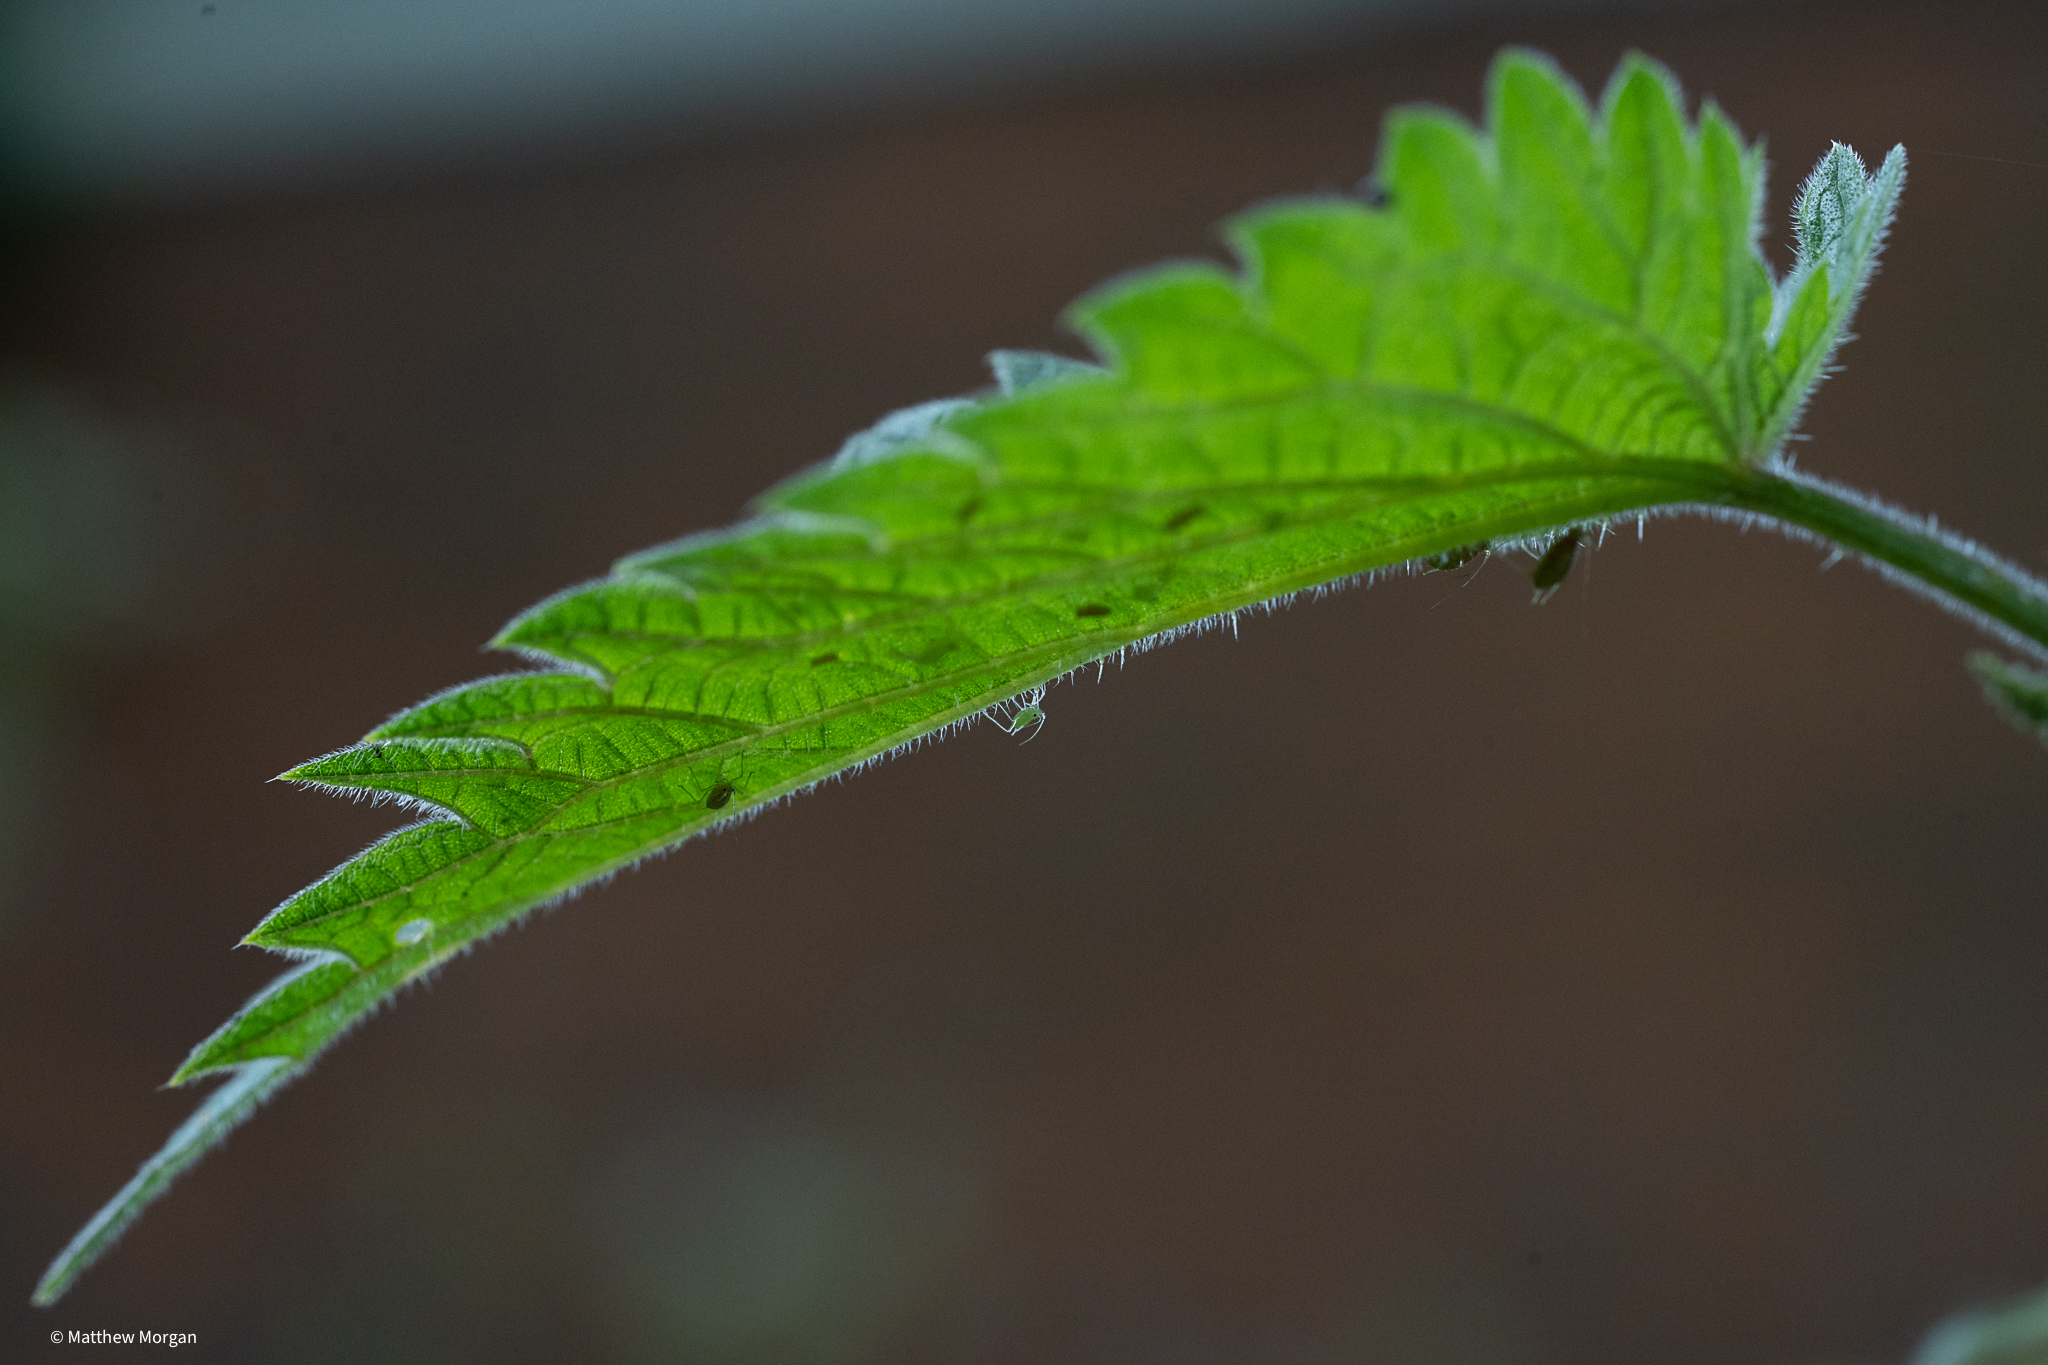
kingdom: Animalia
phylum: Arthropoda
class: Insecta
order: Hemiptera
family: Aphididae
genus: Microlophium
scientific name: Microlophium carnosum
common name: Aphid
